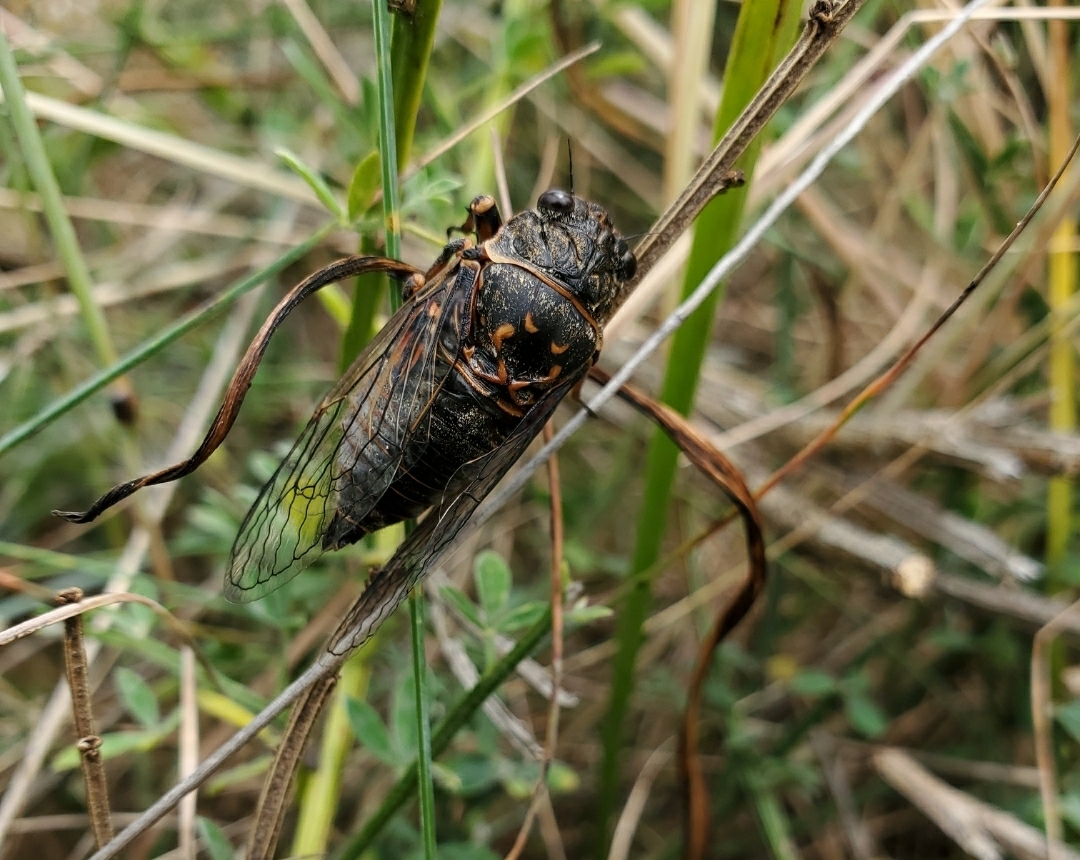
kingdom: Animalia
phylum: Arthropoda
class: Insecta
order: Hemiptera
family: Cicadidae
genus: Okanagana
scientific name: Okanagana occidentalis
